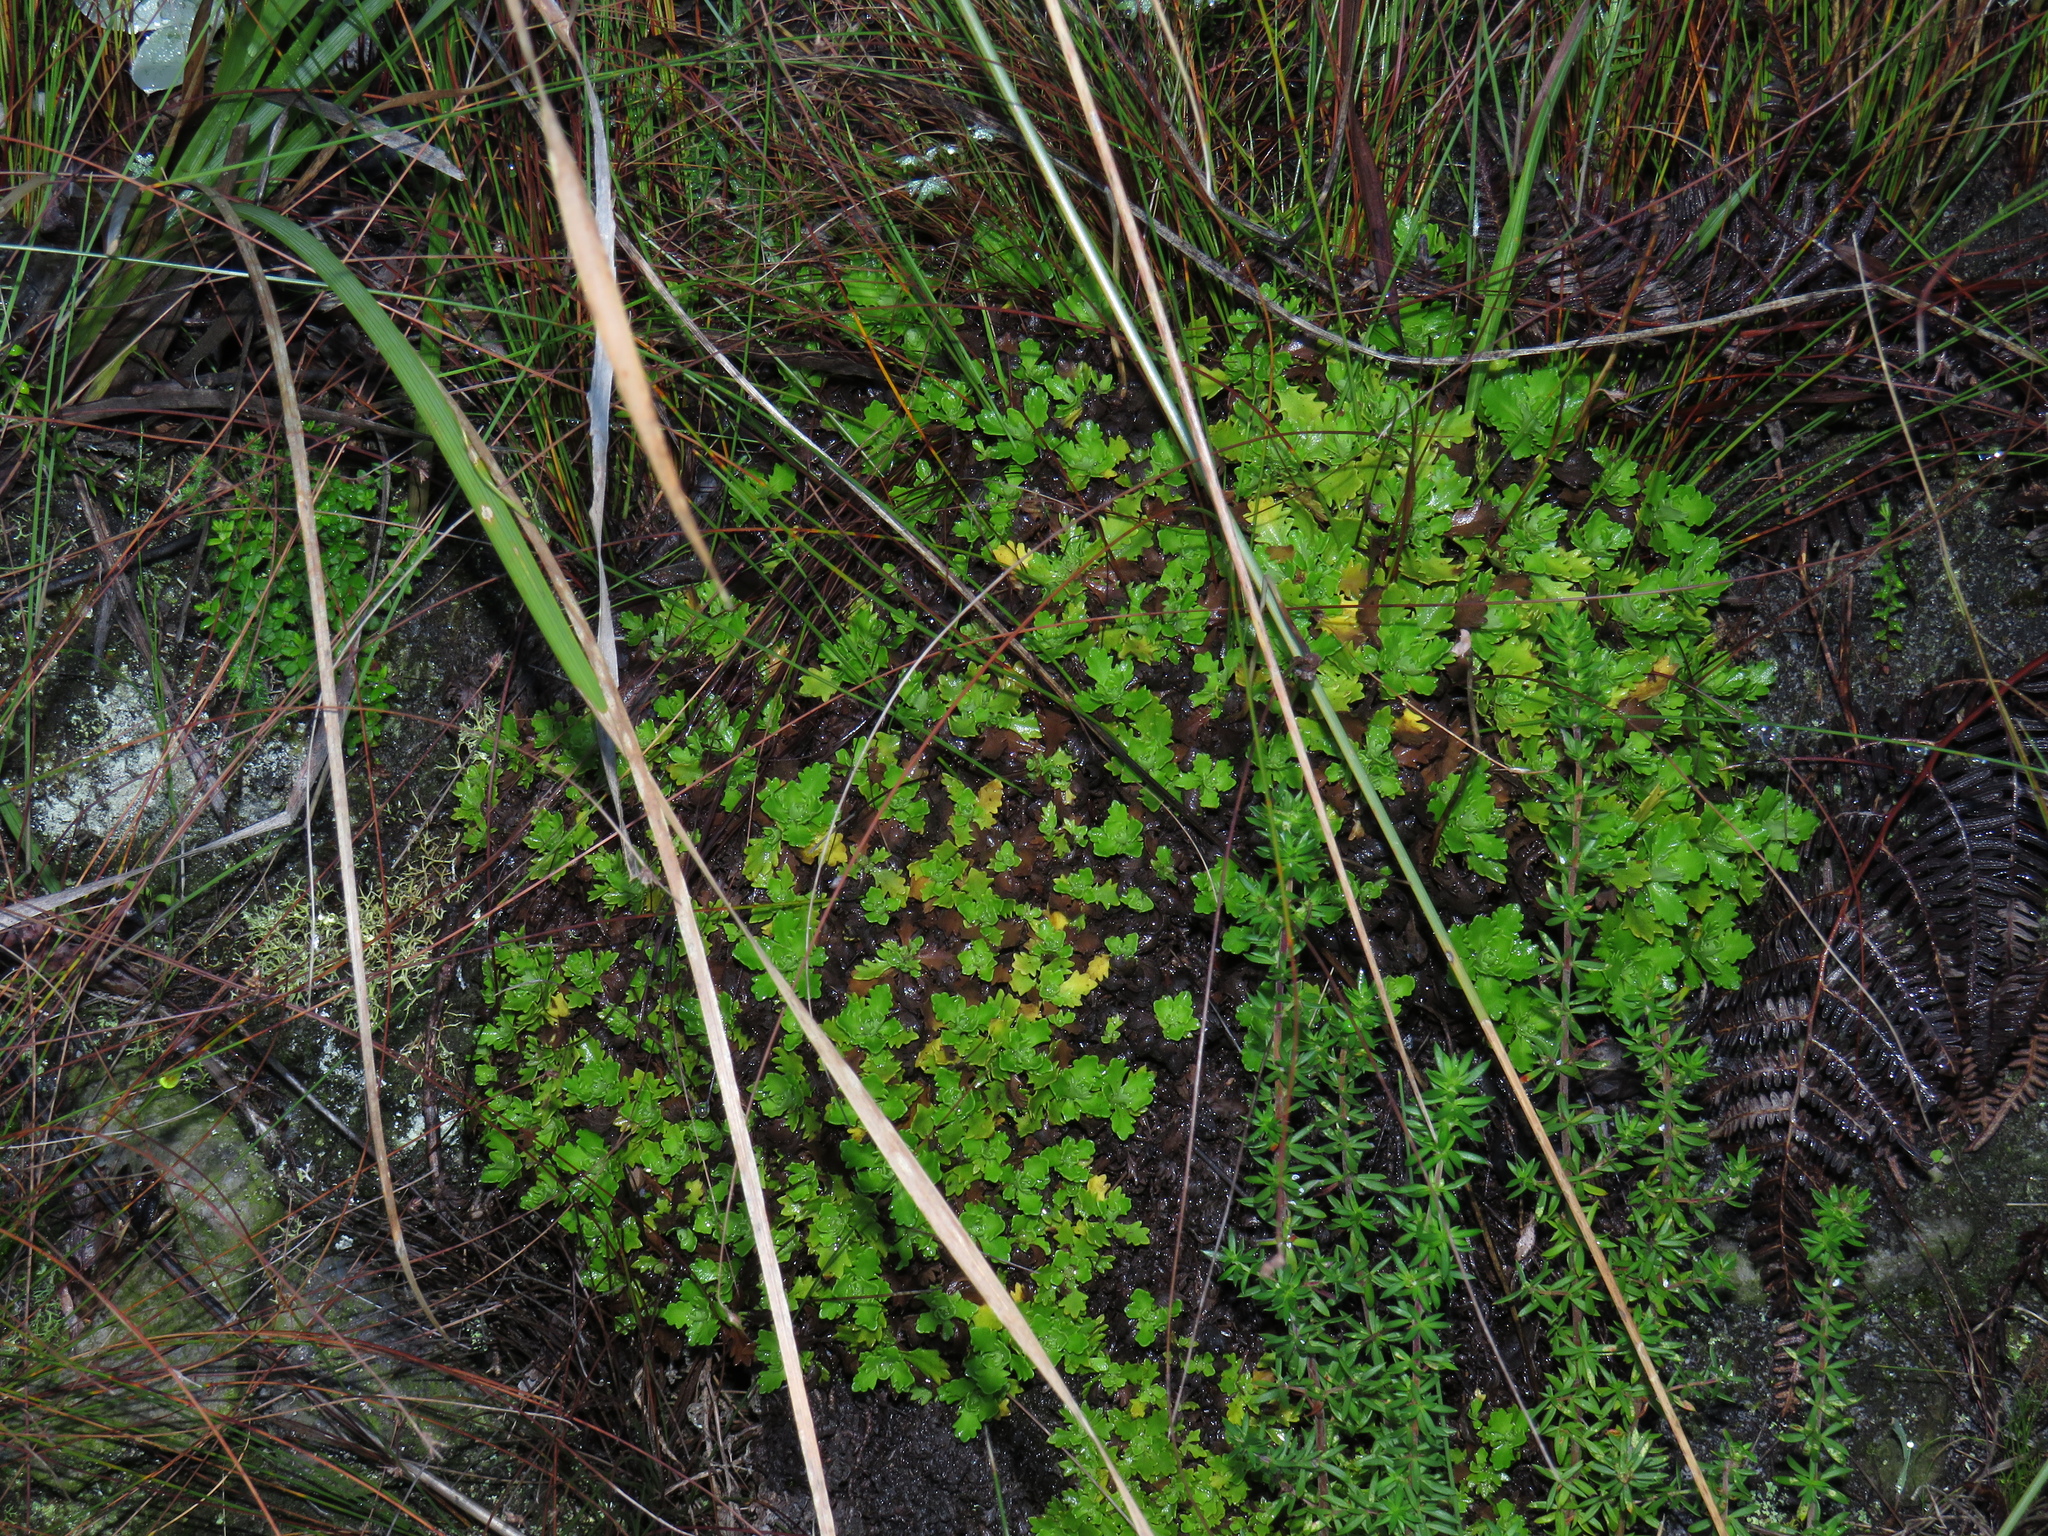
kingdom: Plantae
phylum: Tracheophyta
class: Magnoliopsida
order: Asterales
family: Asteraceae
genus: Osmitopsis
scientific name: Osmitopsis dentata
